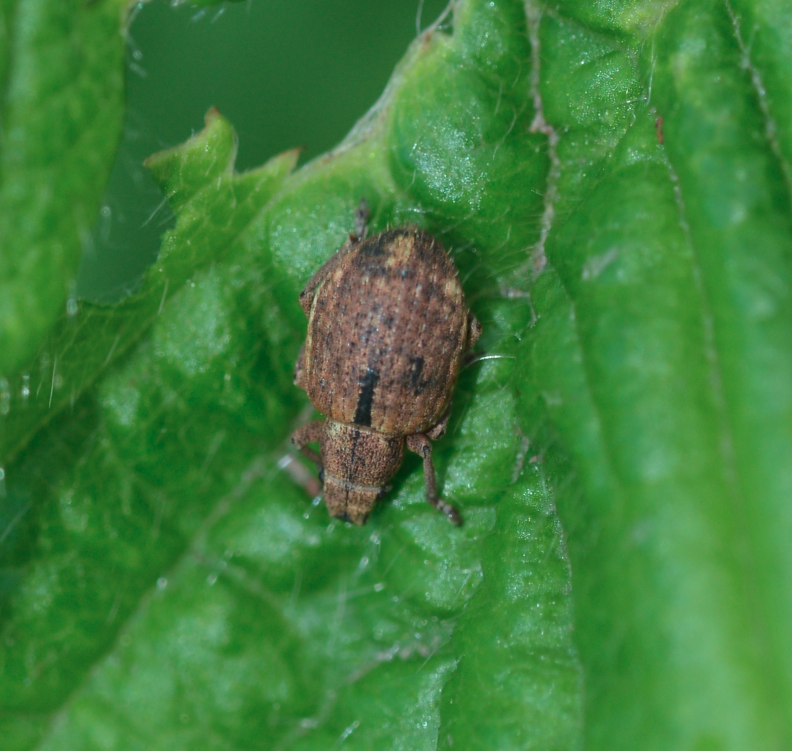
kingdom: Animalia
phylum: Arthropoda
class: Insecta
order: Coleoptera
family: Curculionidae
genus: Strophosoma
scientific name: Strophosoma melanogrammum
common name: Weevil
